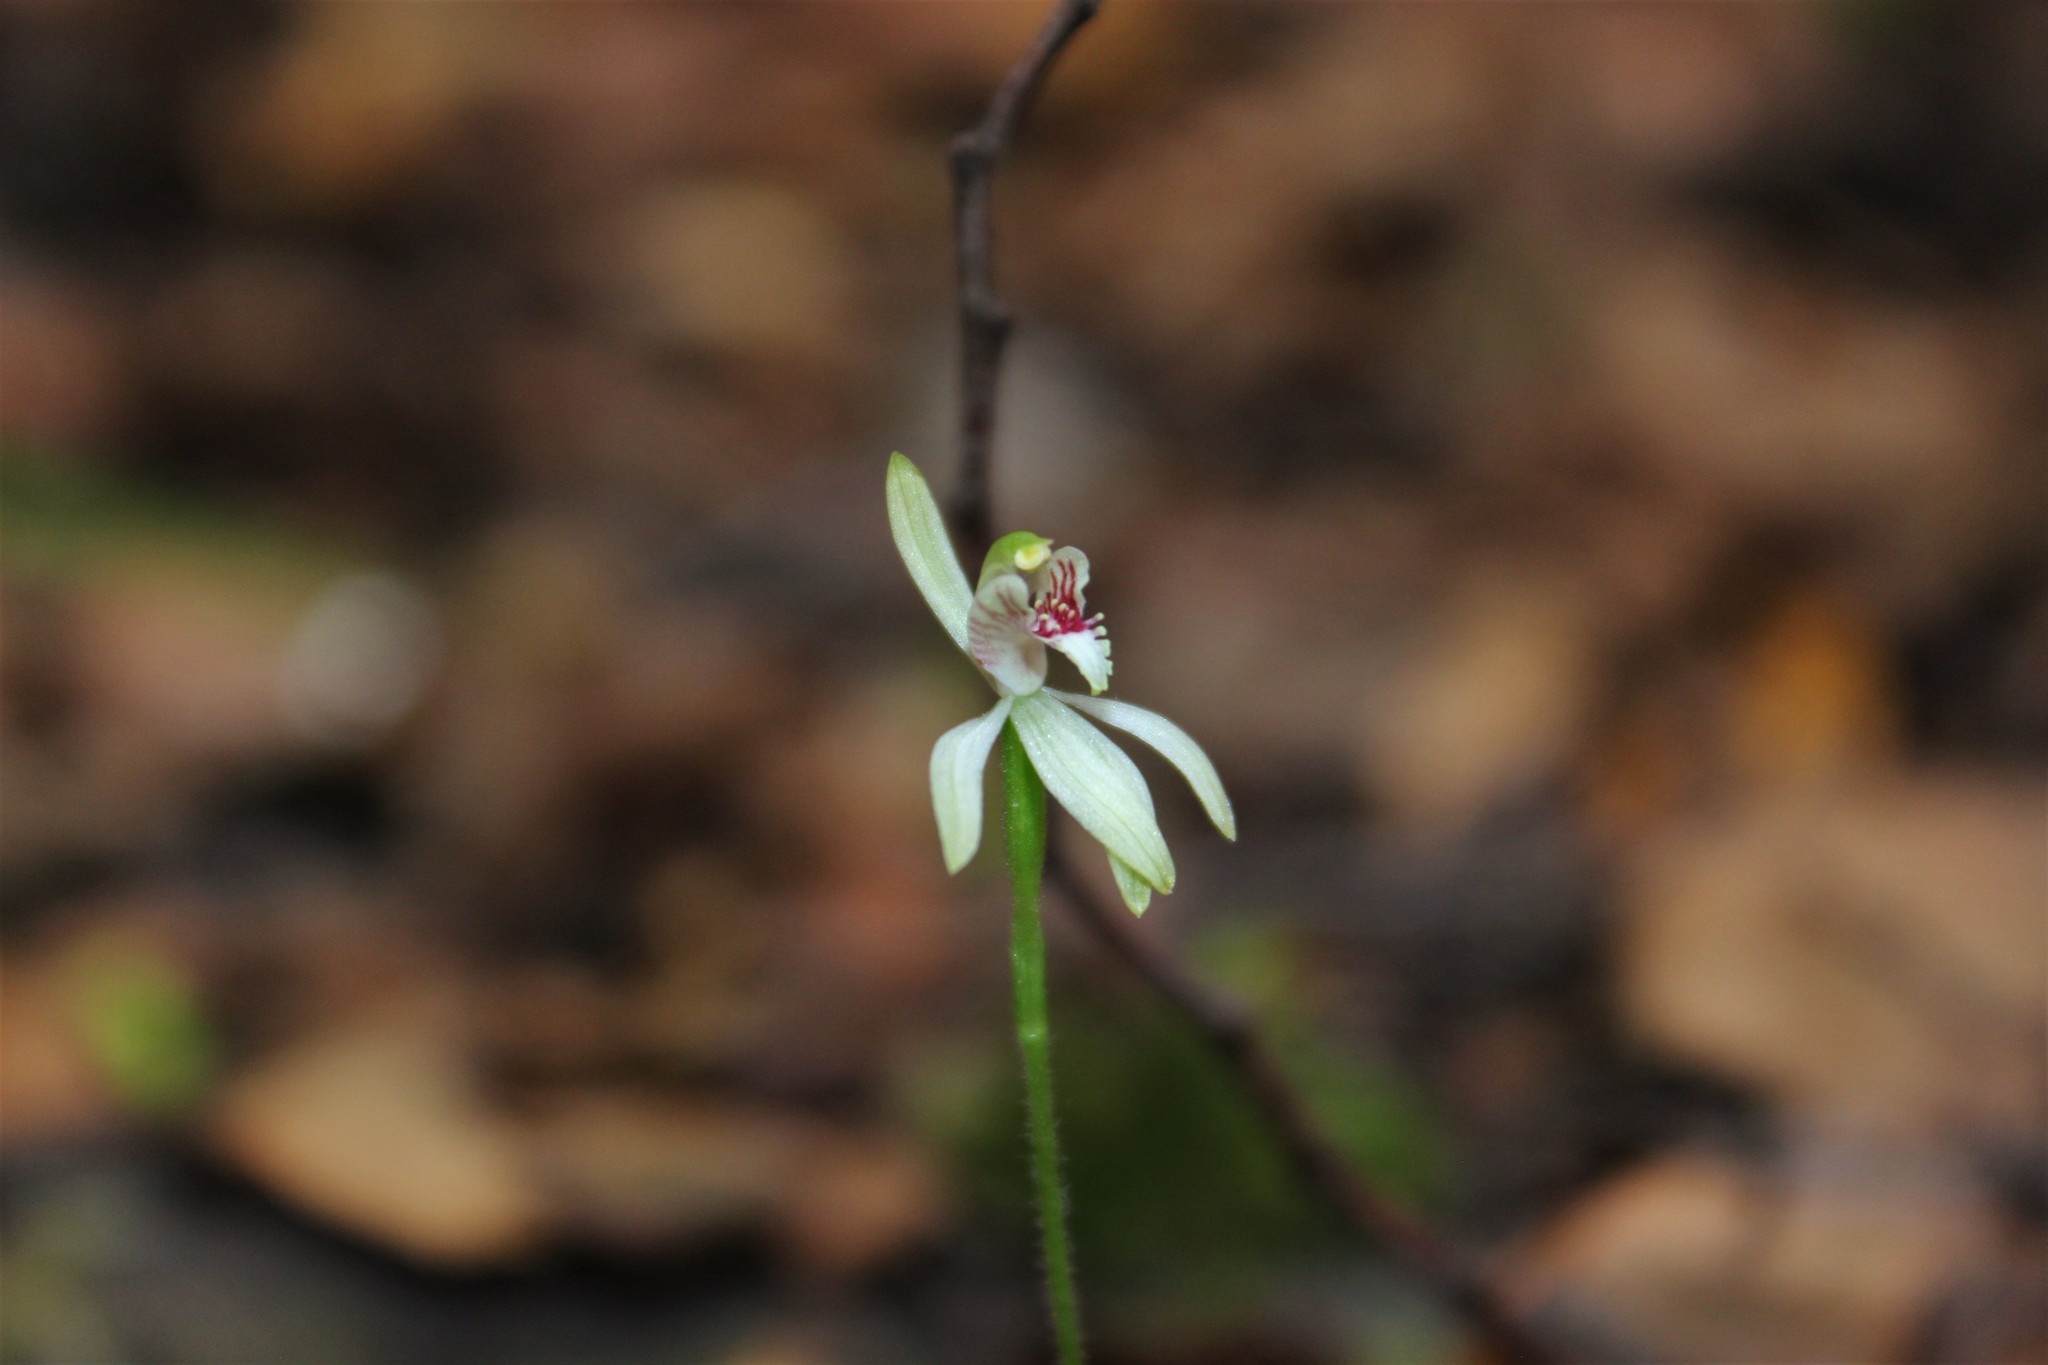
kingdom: Plantae
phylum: Tracheophyta
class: Liliopsida
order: Asparagales
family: Orchidaceae
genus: Caladenia
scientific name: Caladenia chlorostyla
